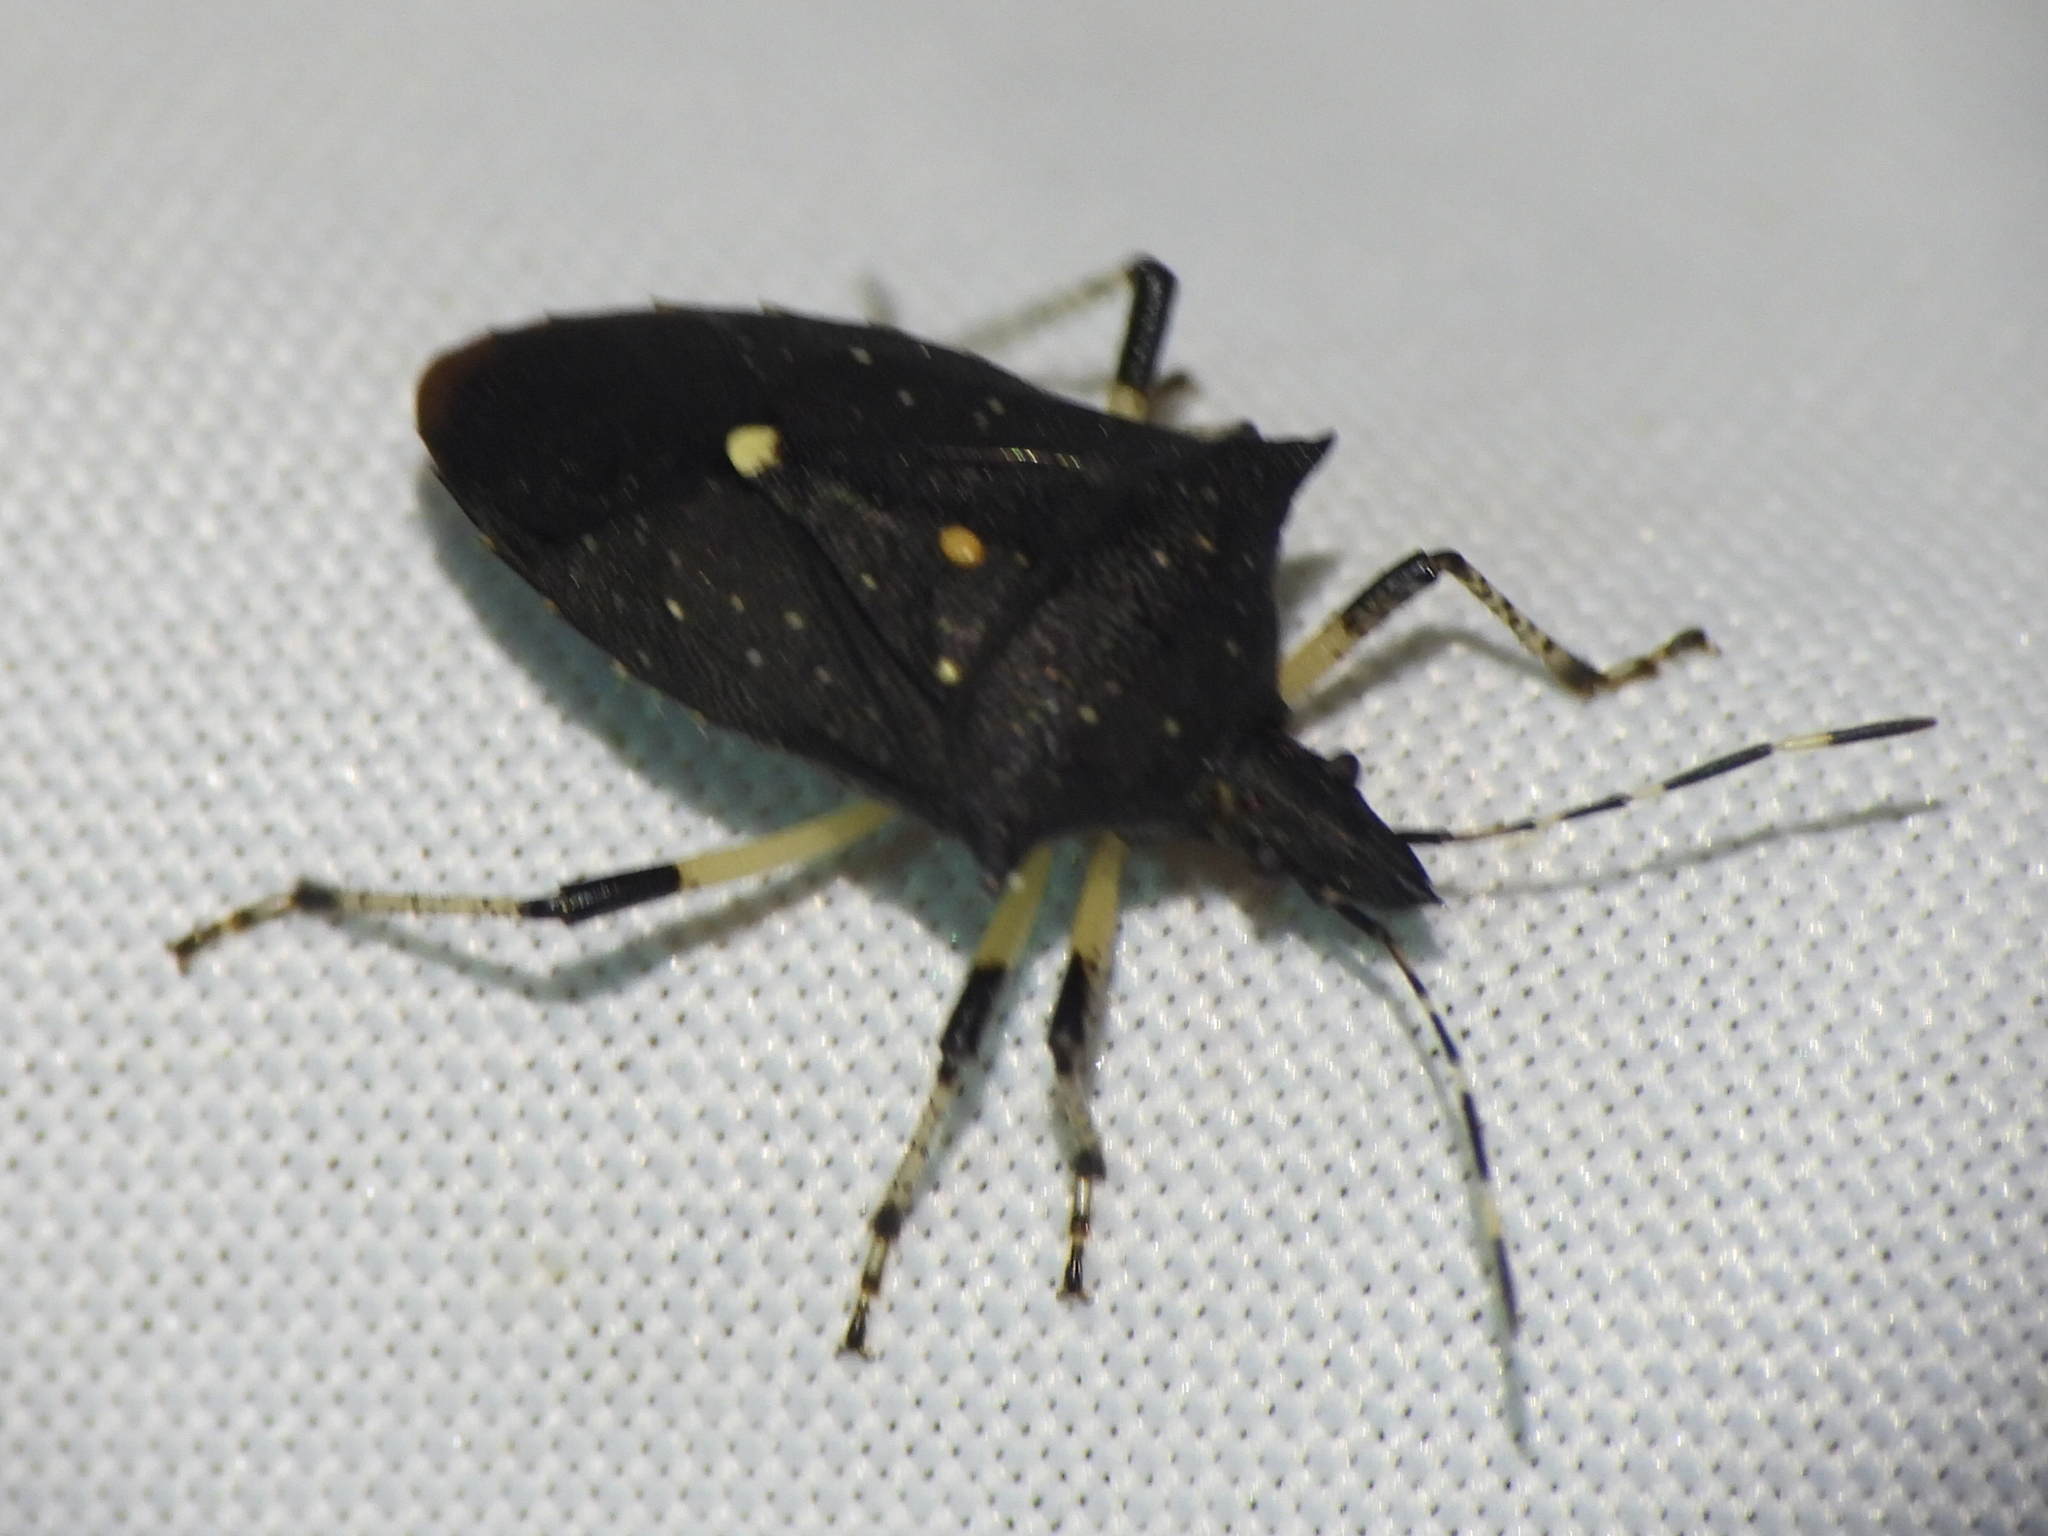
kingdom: Animalia
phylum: Arthropoda
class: Insecta
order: Hemiptera
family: Pentatomidae
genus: Proxys
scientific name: Proxys punctulatus
